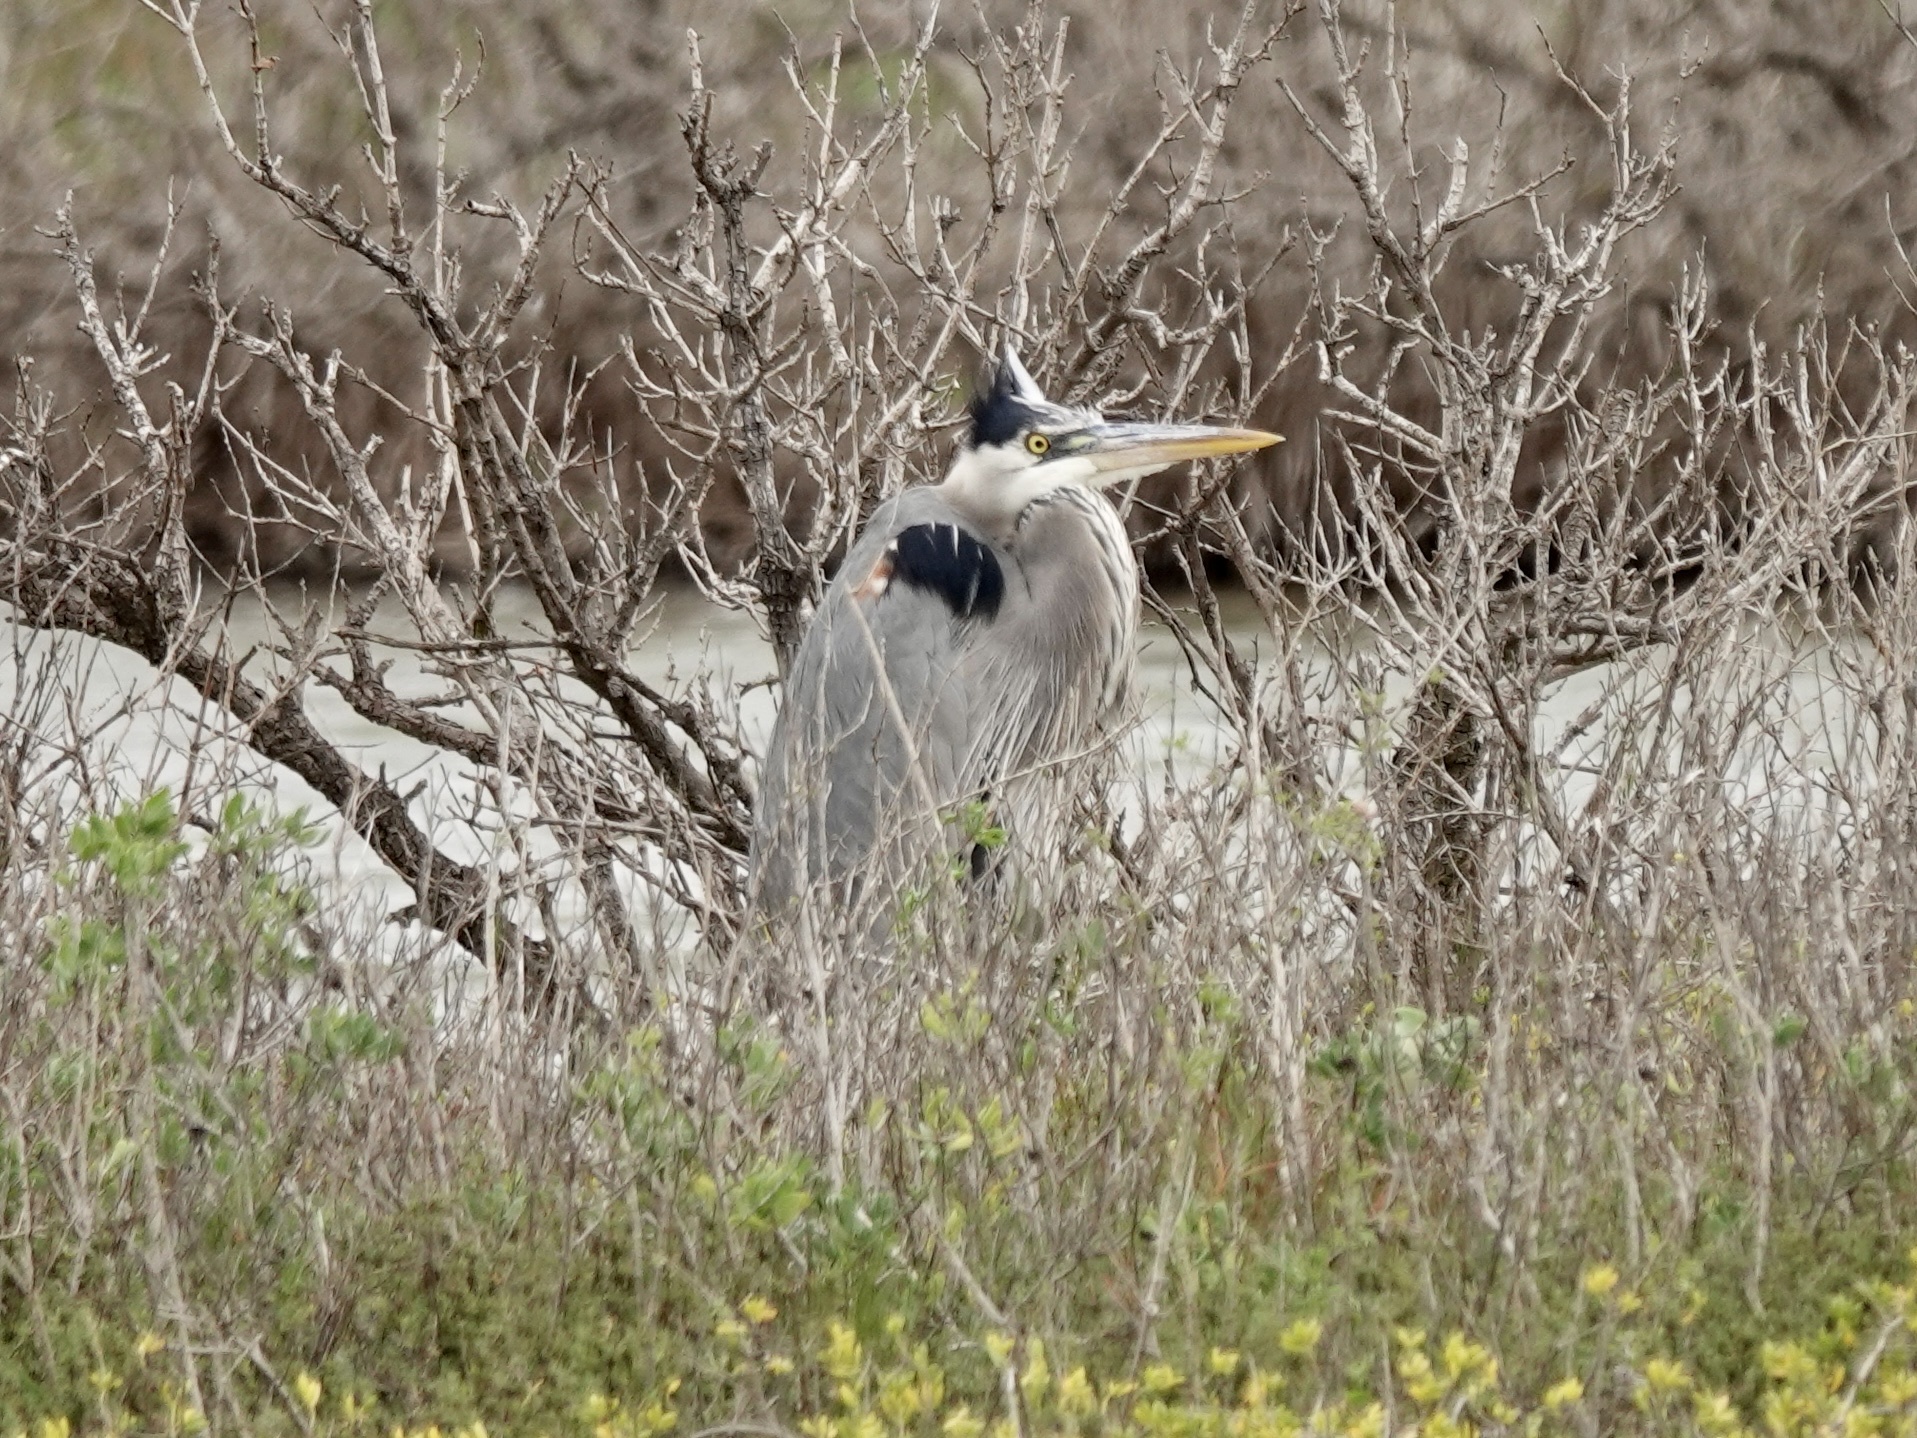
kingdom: Animalia
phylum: Chordata
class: Aves
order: Pelecaniformes
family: Ardeidae
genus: Ardea
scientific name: Ardea herodias
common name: Great blue heron
